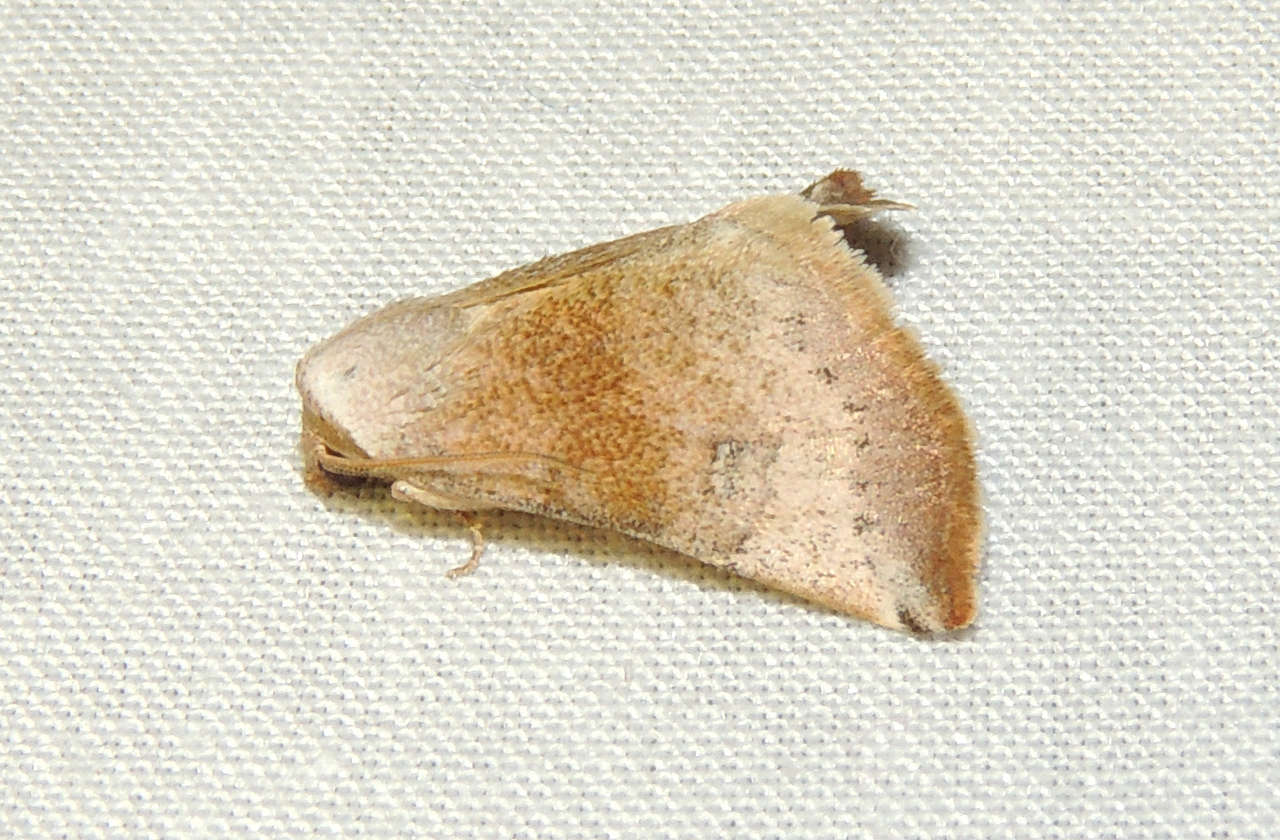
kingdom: Animalia
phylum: Arthropoda
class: Insecta
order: Lepidoptera
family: Noctuidae
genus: Mataeomera
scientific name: Mataeomera mesotaenia
